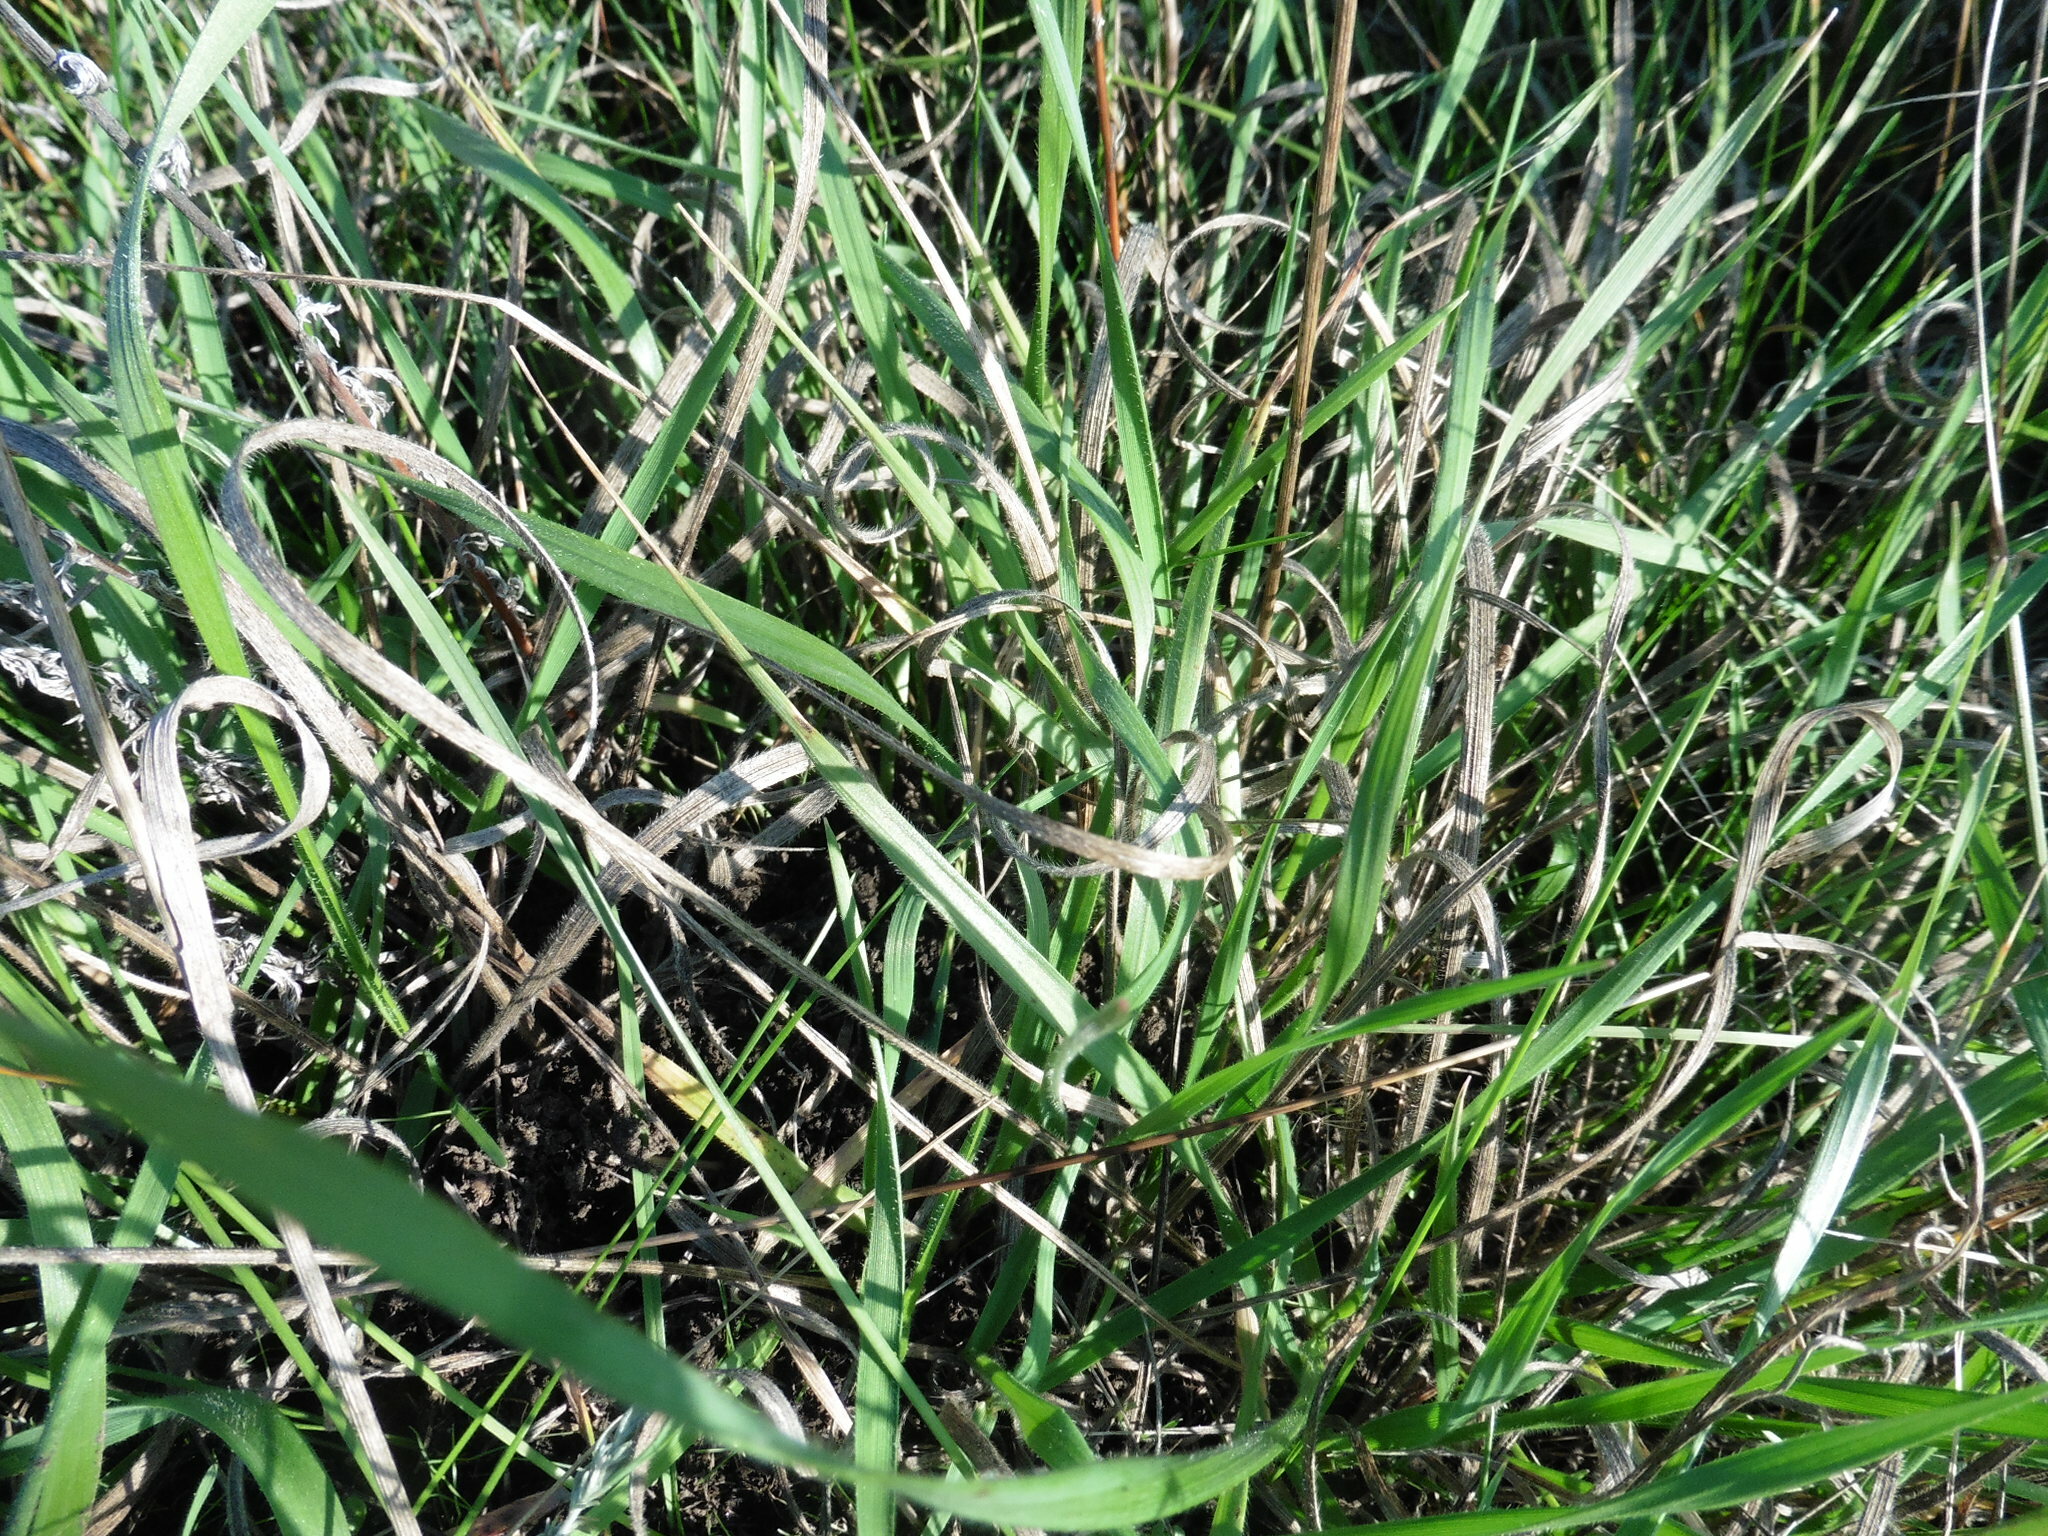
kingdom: Plantae
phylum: Tracheophyta
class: Liliopsida
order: Poales
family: Poaceae
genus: Bromus
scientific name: Bromus riparius
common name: Meadow brome
